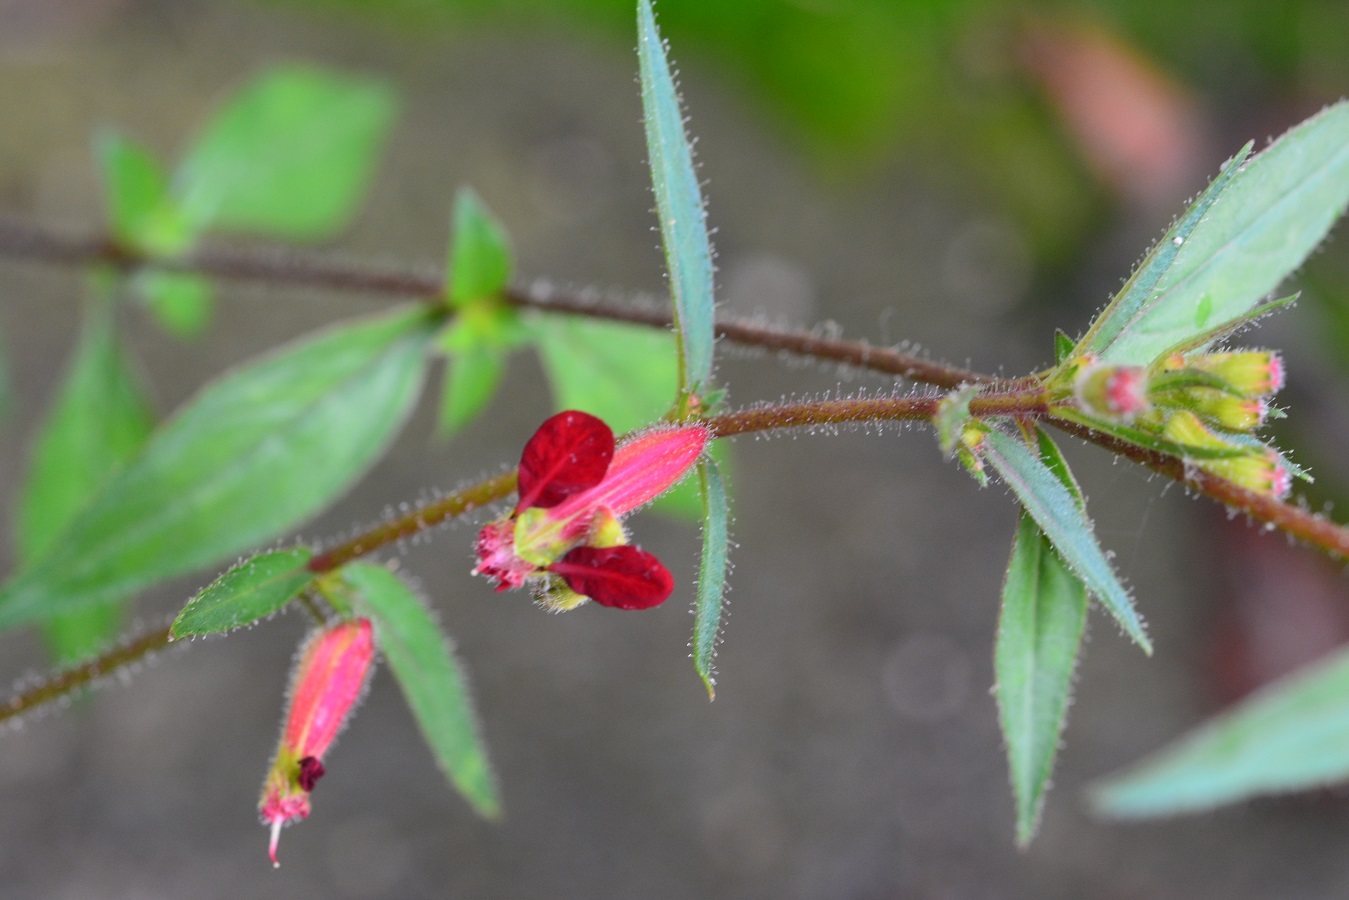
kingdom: Plantae
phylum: Tracheophyta
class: Magnoliopsida
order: Myrtales
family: Lythraceae
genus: Cuphea
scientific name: Cuphea hookeriana
